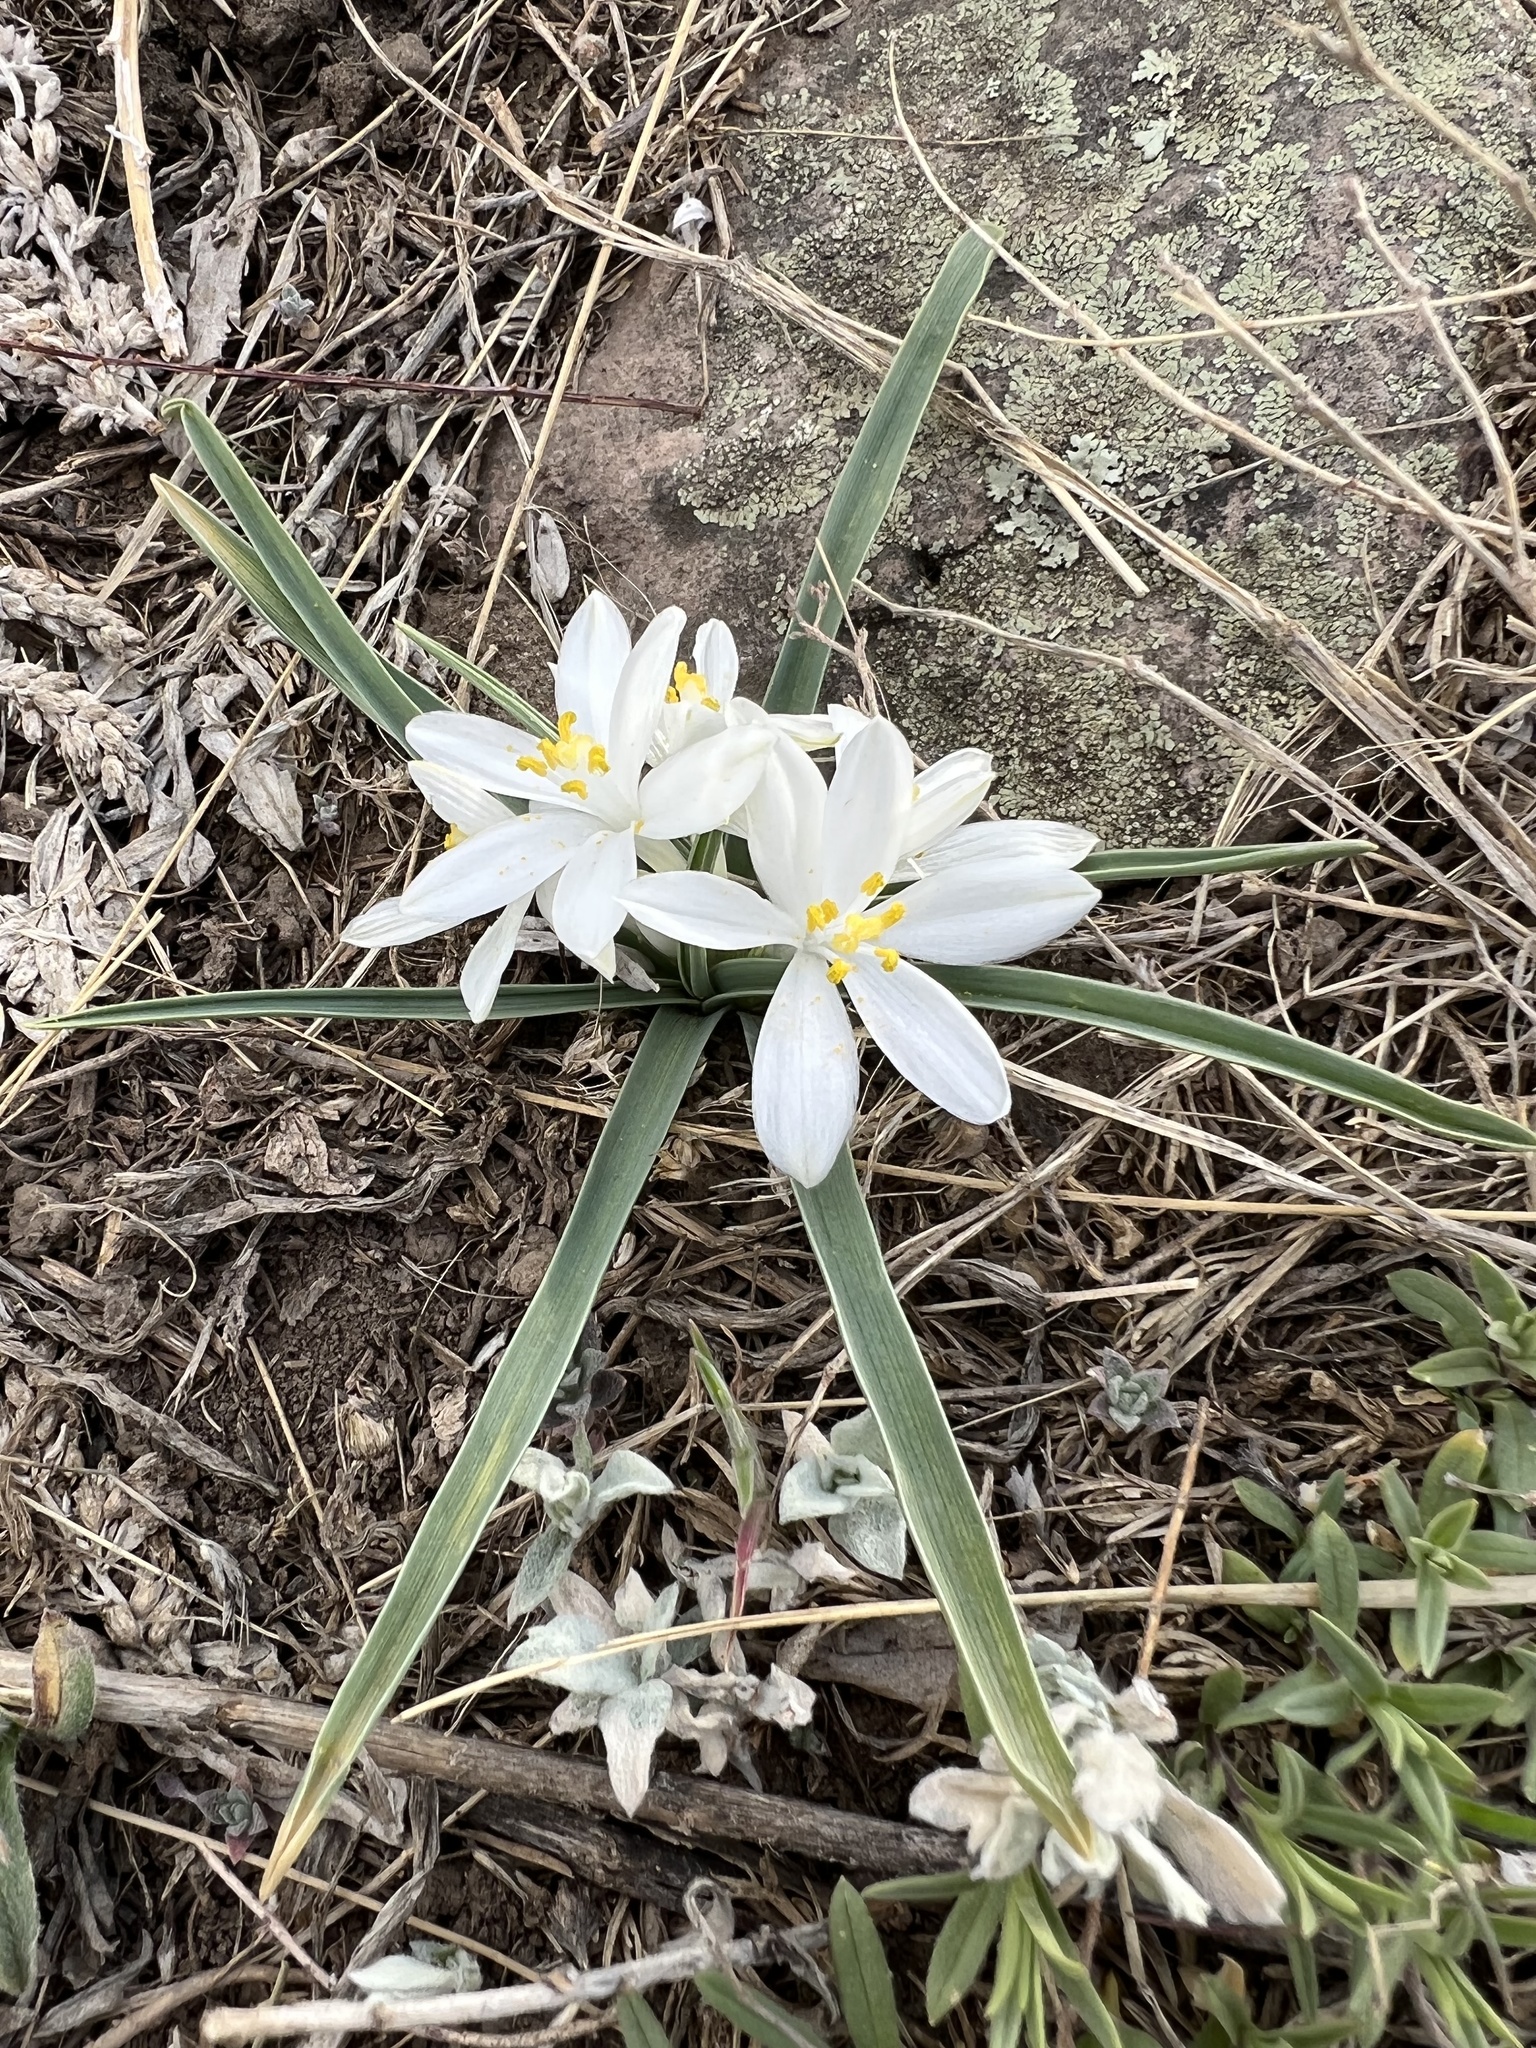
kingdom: Plantae
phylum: Tracheophyta
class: Liliopsida
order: Asparagales
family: Asparagaceae
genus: Leucocrinum
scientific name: Leucocrinum montanum
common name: Mountain-lily
